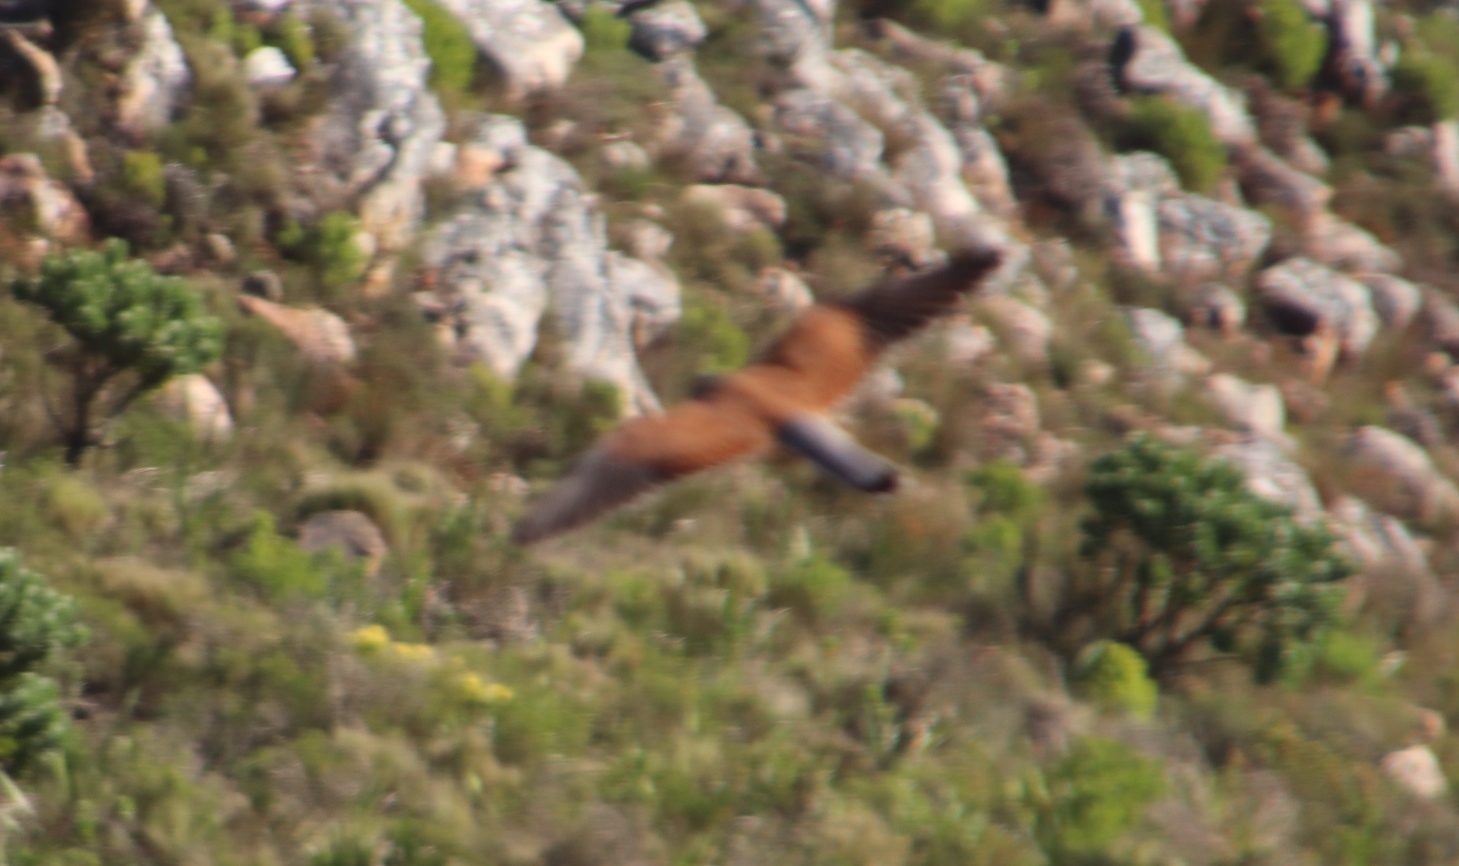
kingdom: Animalia
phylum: Chordata
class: Aves
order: Falconiformes
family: Falconidae
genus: Falco
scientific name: Falco rupicolus
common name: Rock kestrel
